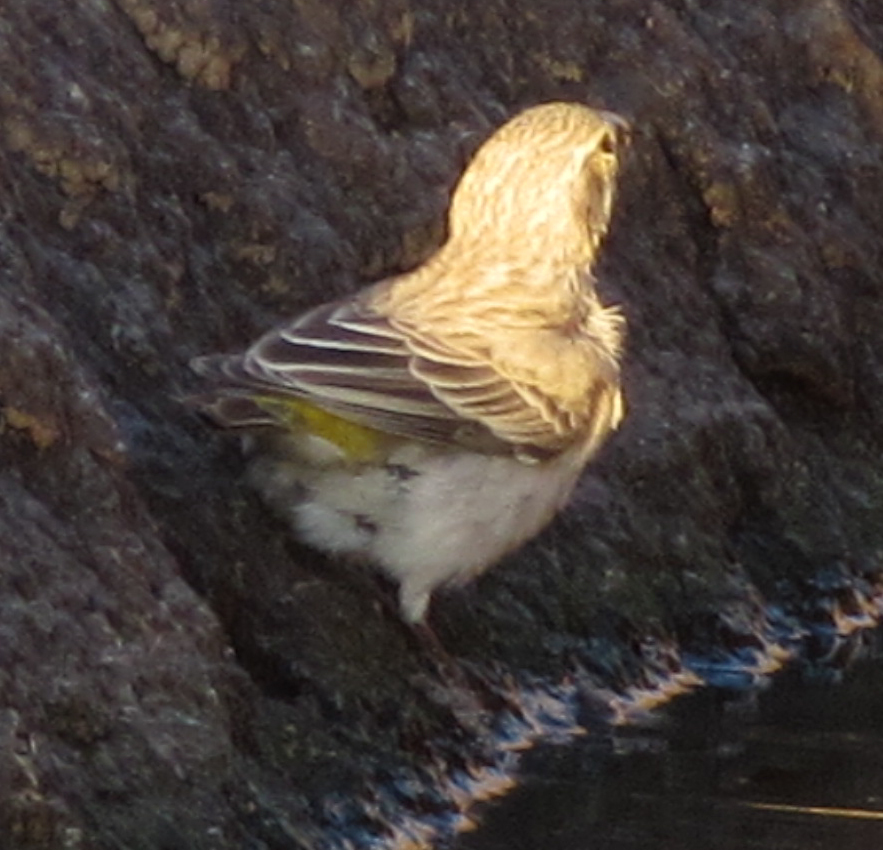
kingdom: Animalia
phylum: Chordata
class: Aves
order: Passeriformes
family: Fringillidae
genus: Crithagra
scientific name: Crithagra albogularis
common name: White-throated canary
